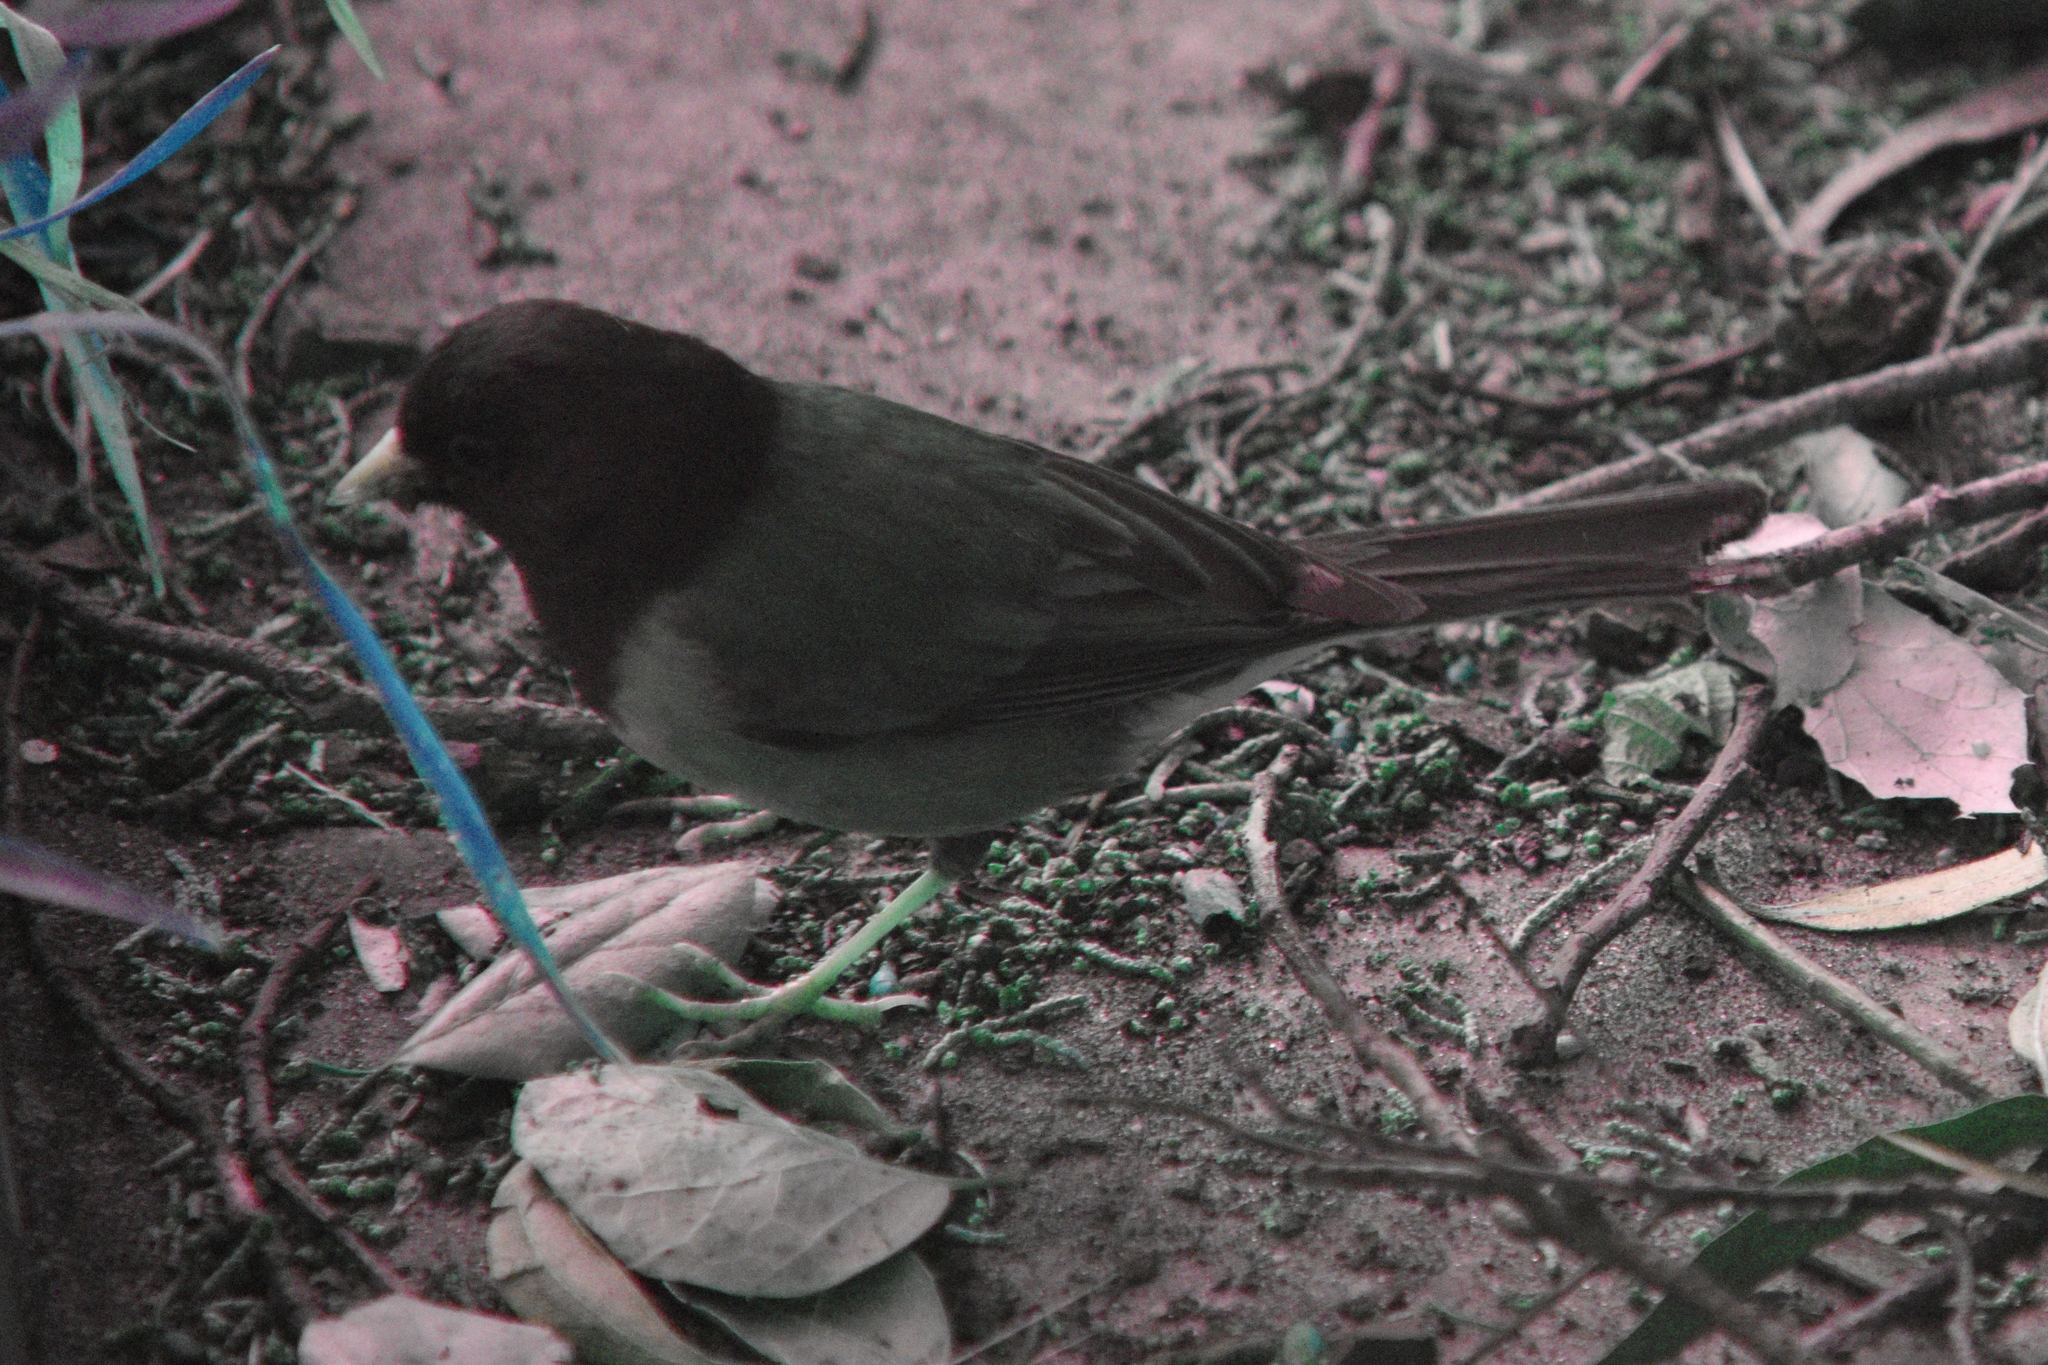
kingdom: Animalia
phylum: Chordata
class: Aves
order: Passeriformes
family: Passerellidae
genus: Junco
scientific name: Junco hyemalis
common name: Dark-eyed junco
